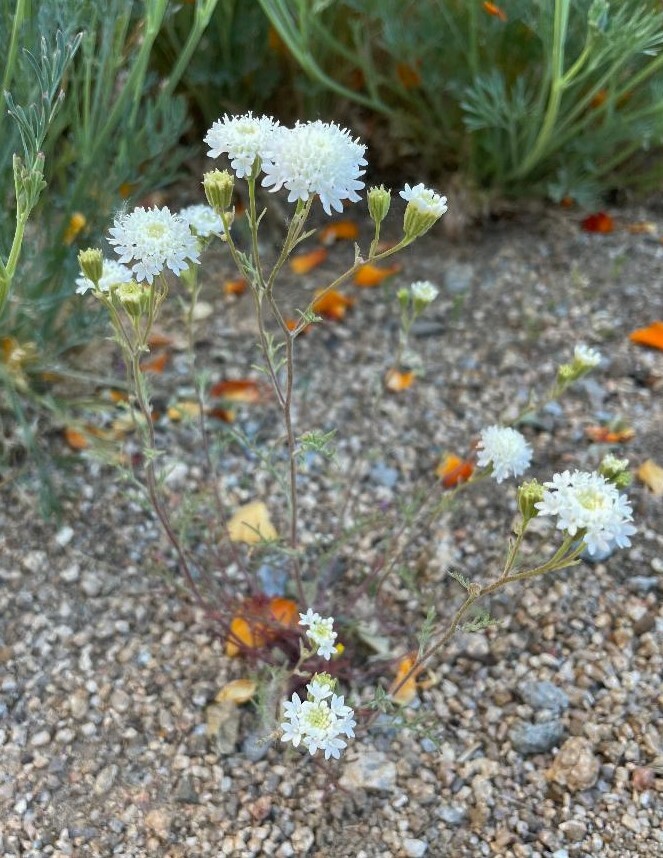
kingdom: Plantae
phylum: Tracheophyta
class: Magnoliopsida
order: Asterales
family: Asteraceae
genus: Chaenactis
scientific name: Chaenactis stevioides
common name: Desert pincushion
